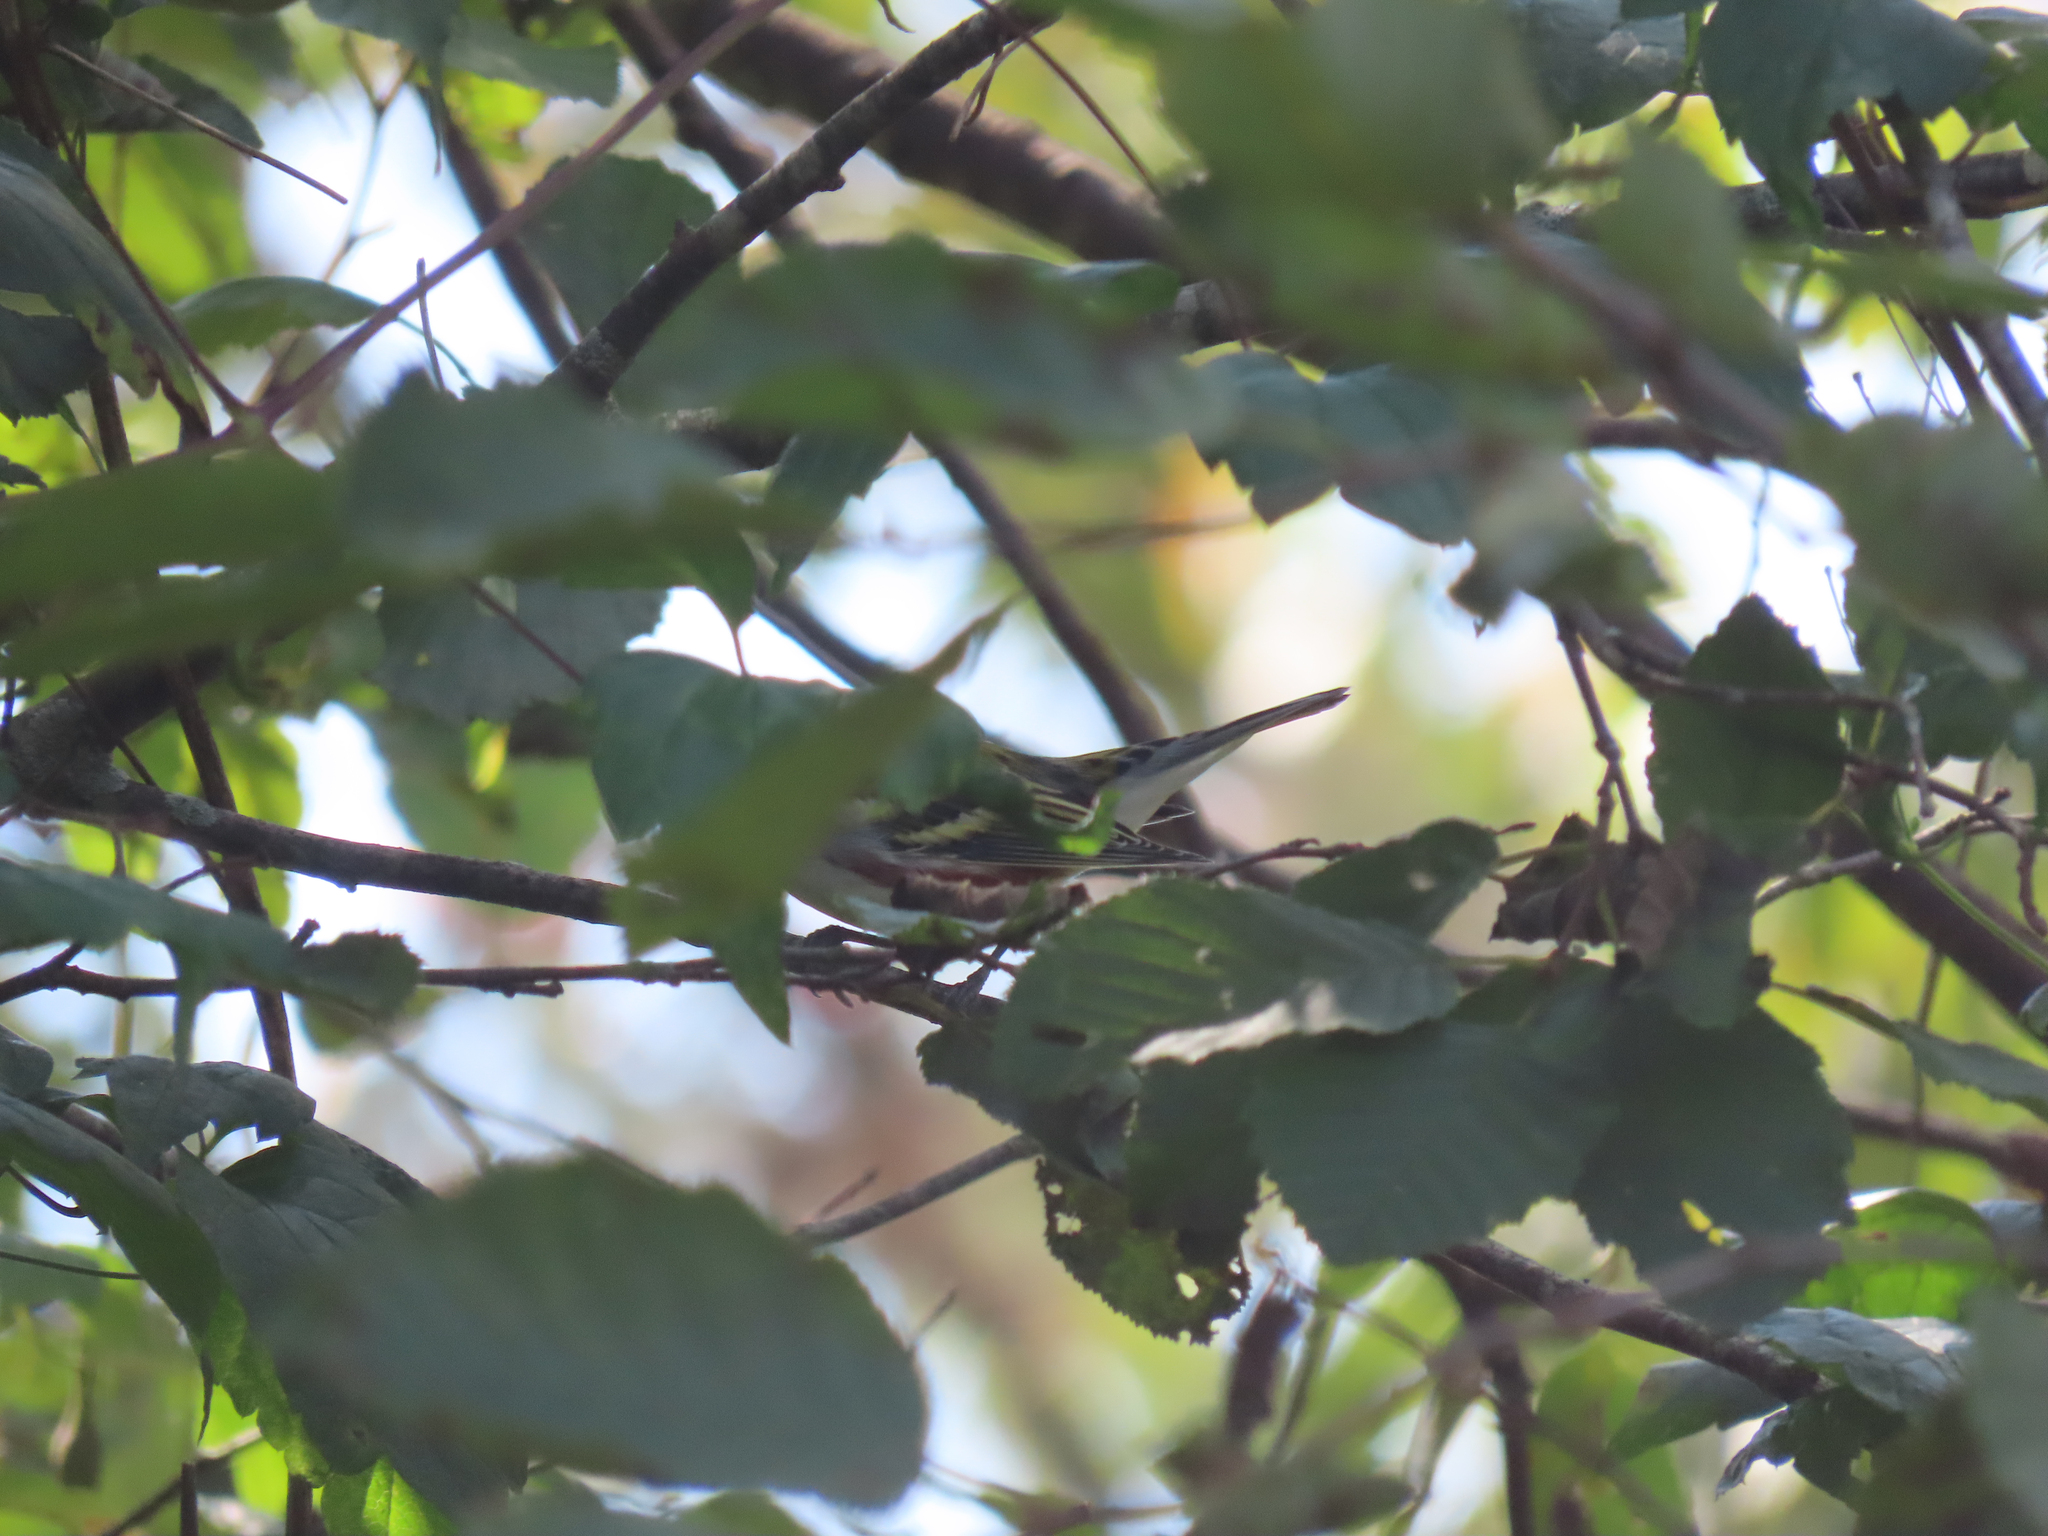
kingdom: Animalia
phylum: Chordata
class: Aves
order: Passeriformes
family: Parulidae
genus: Setophaga
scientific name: Setophaga pensylvanica
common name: Chestnut-sided warbler
